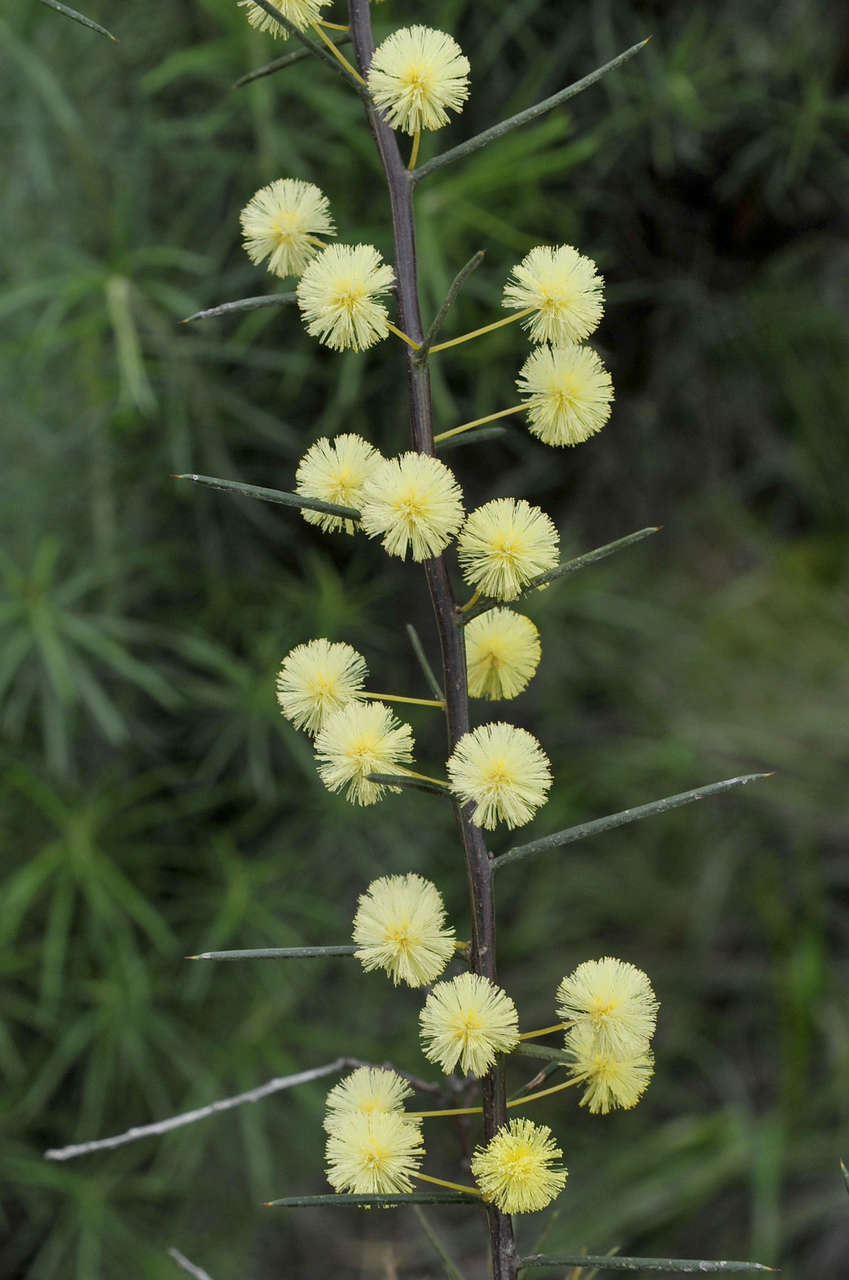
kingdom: Plantae
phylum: Tracheophyta
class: Magnoliopsida
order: Fabales
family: Fabaceae
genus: Acacia
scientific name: Acacia genistifolia
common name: Early wattle
